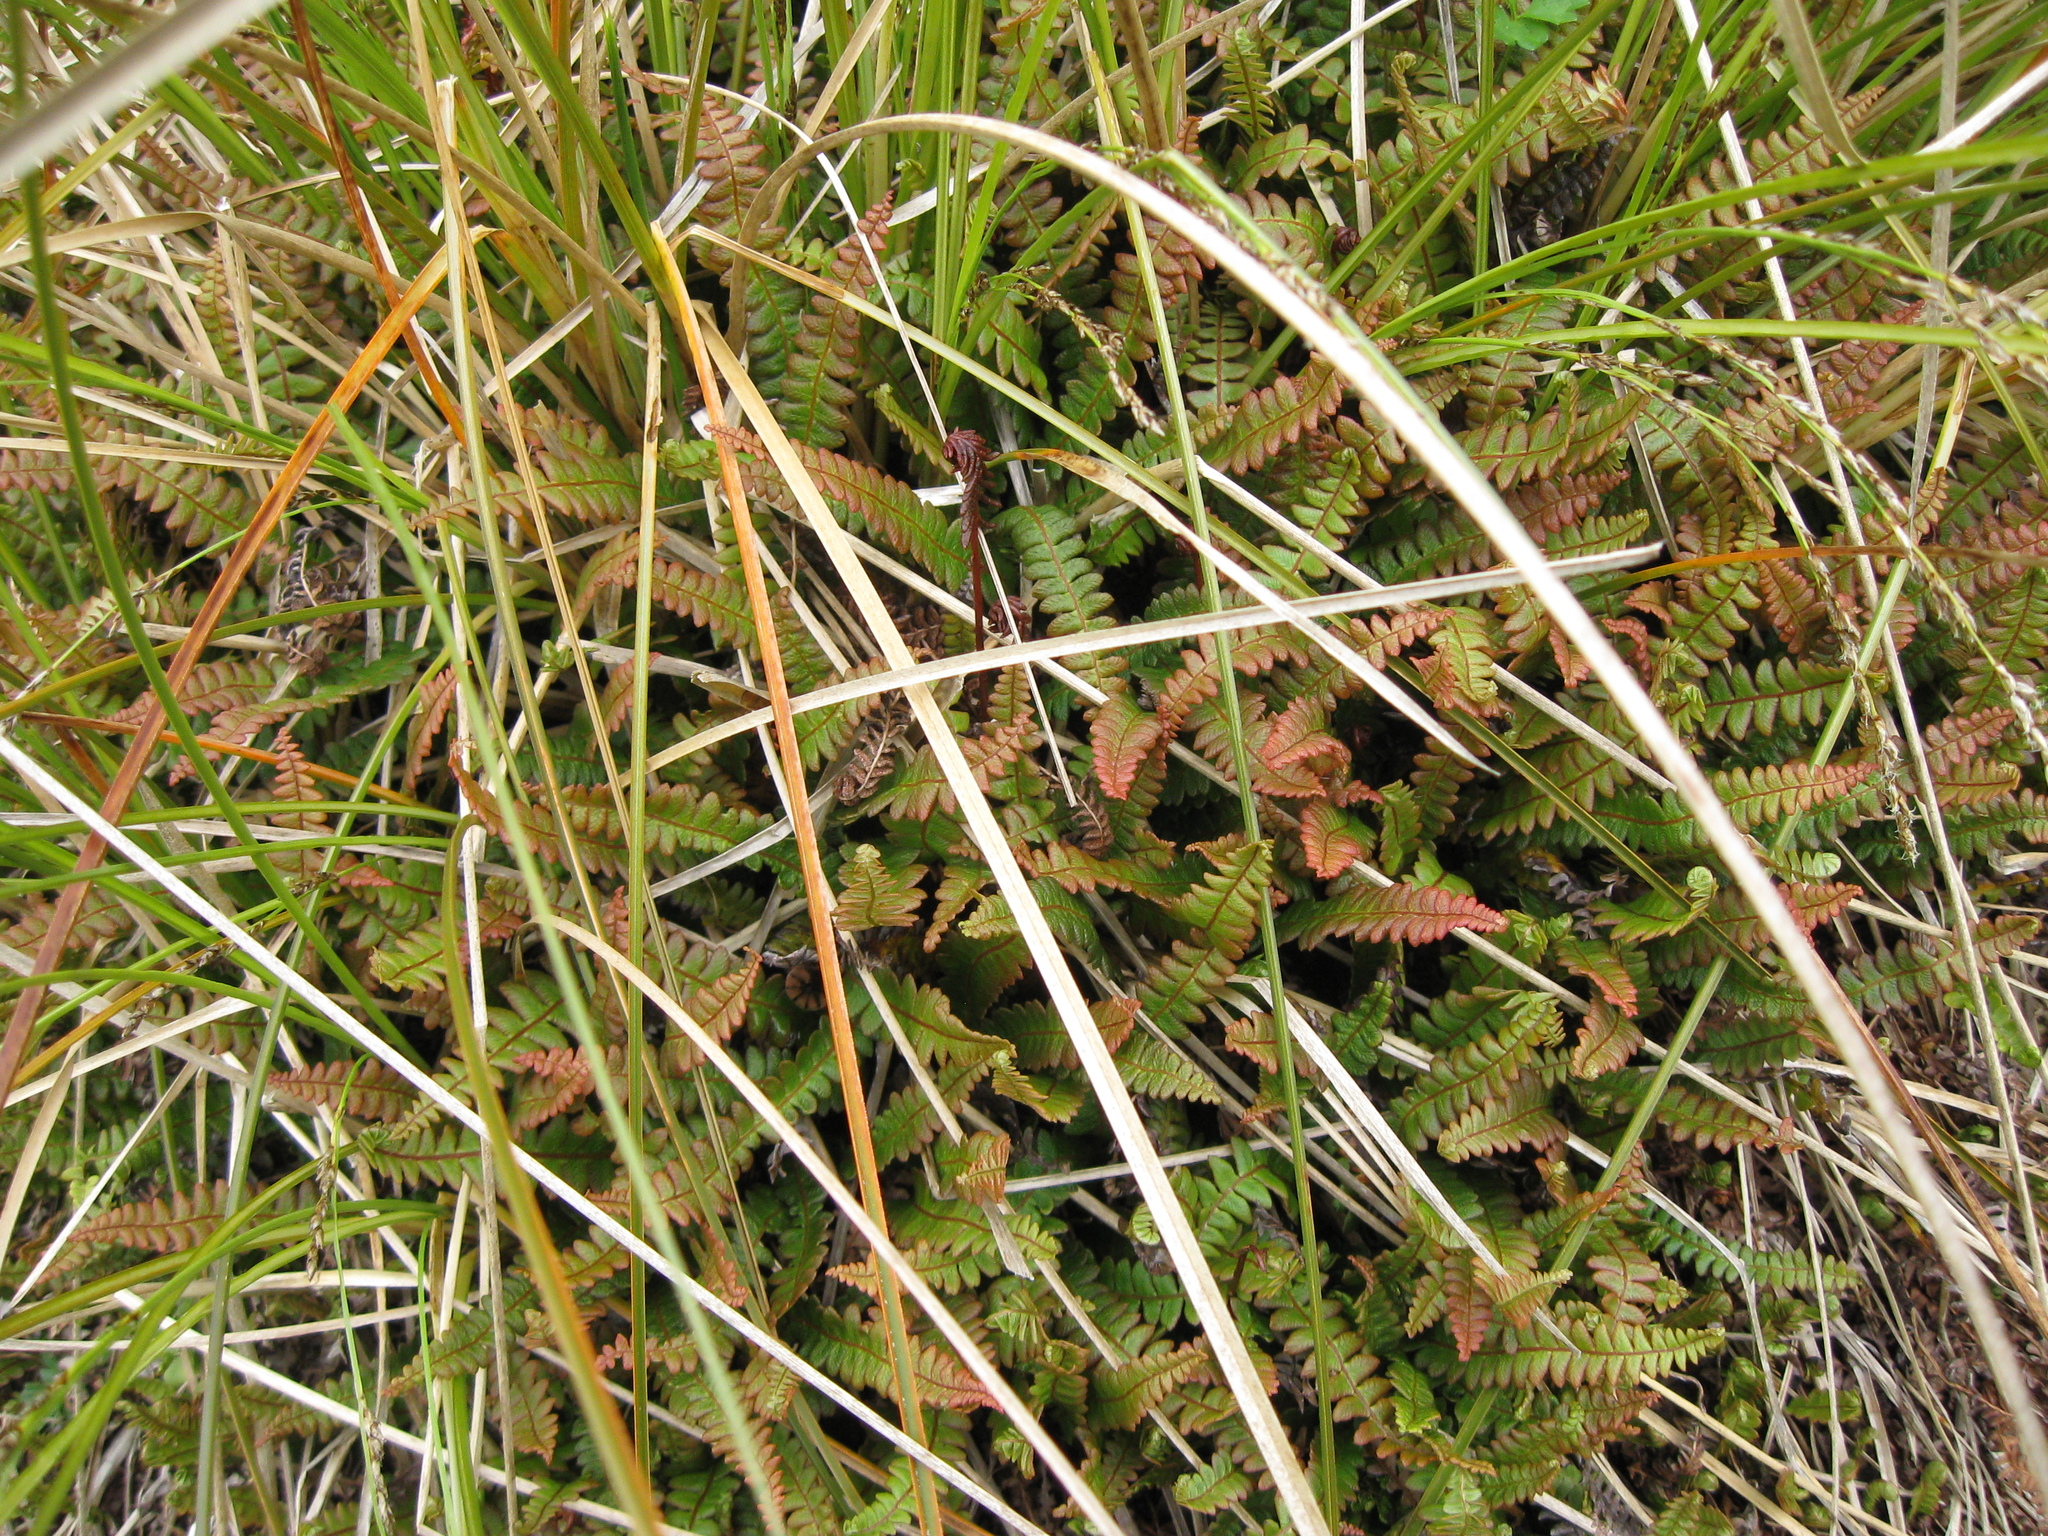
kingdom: Plantae
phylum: Tracheophyta
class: Polypodiopsida
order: Polypodiales
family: Blechnaceae
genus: Austroblechnum
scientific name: Austroblechnum penna-marina
